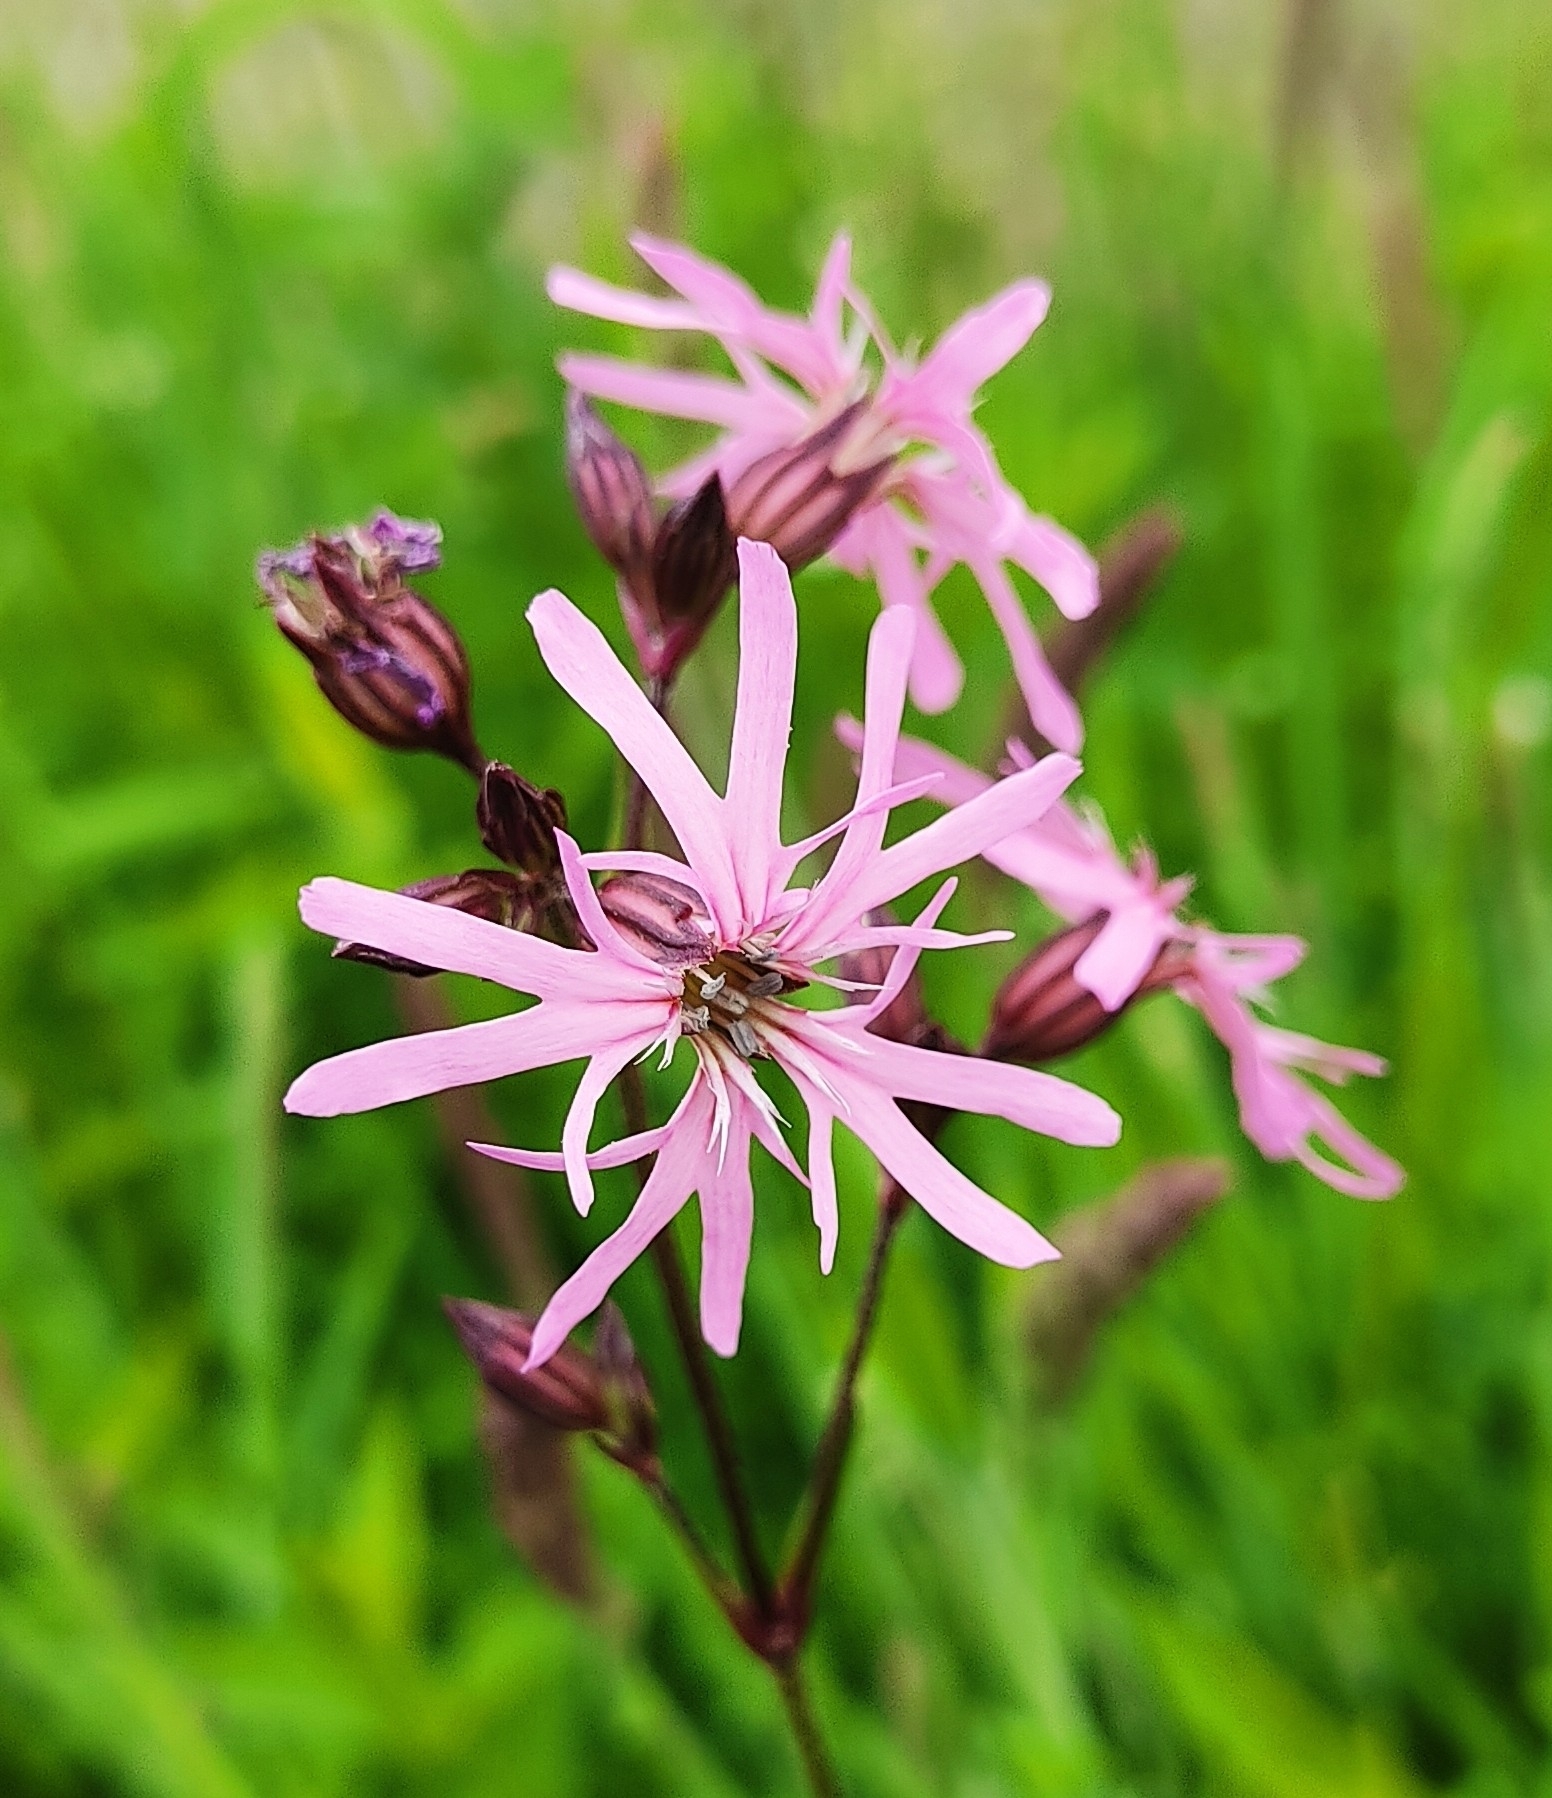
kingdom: Plantae
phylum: Tracheophyta
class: Magnoliopsida
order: Caryophyllales
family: Caryophyllaceae
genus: Silene
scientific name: Silene flos-cuculi
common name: Ragged-robin
